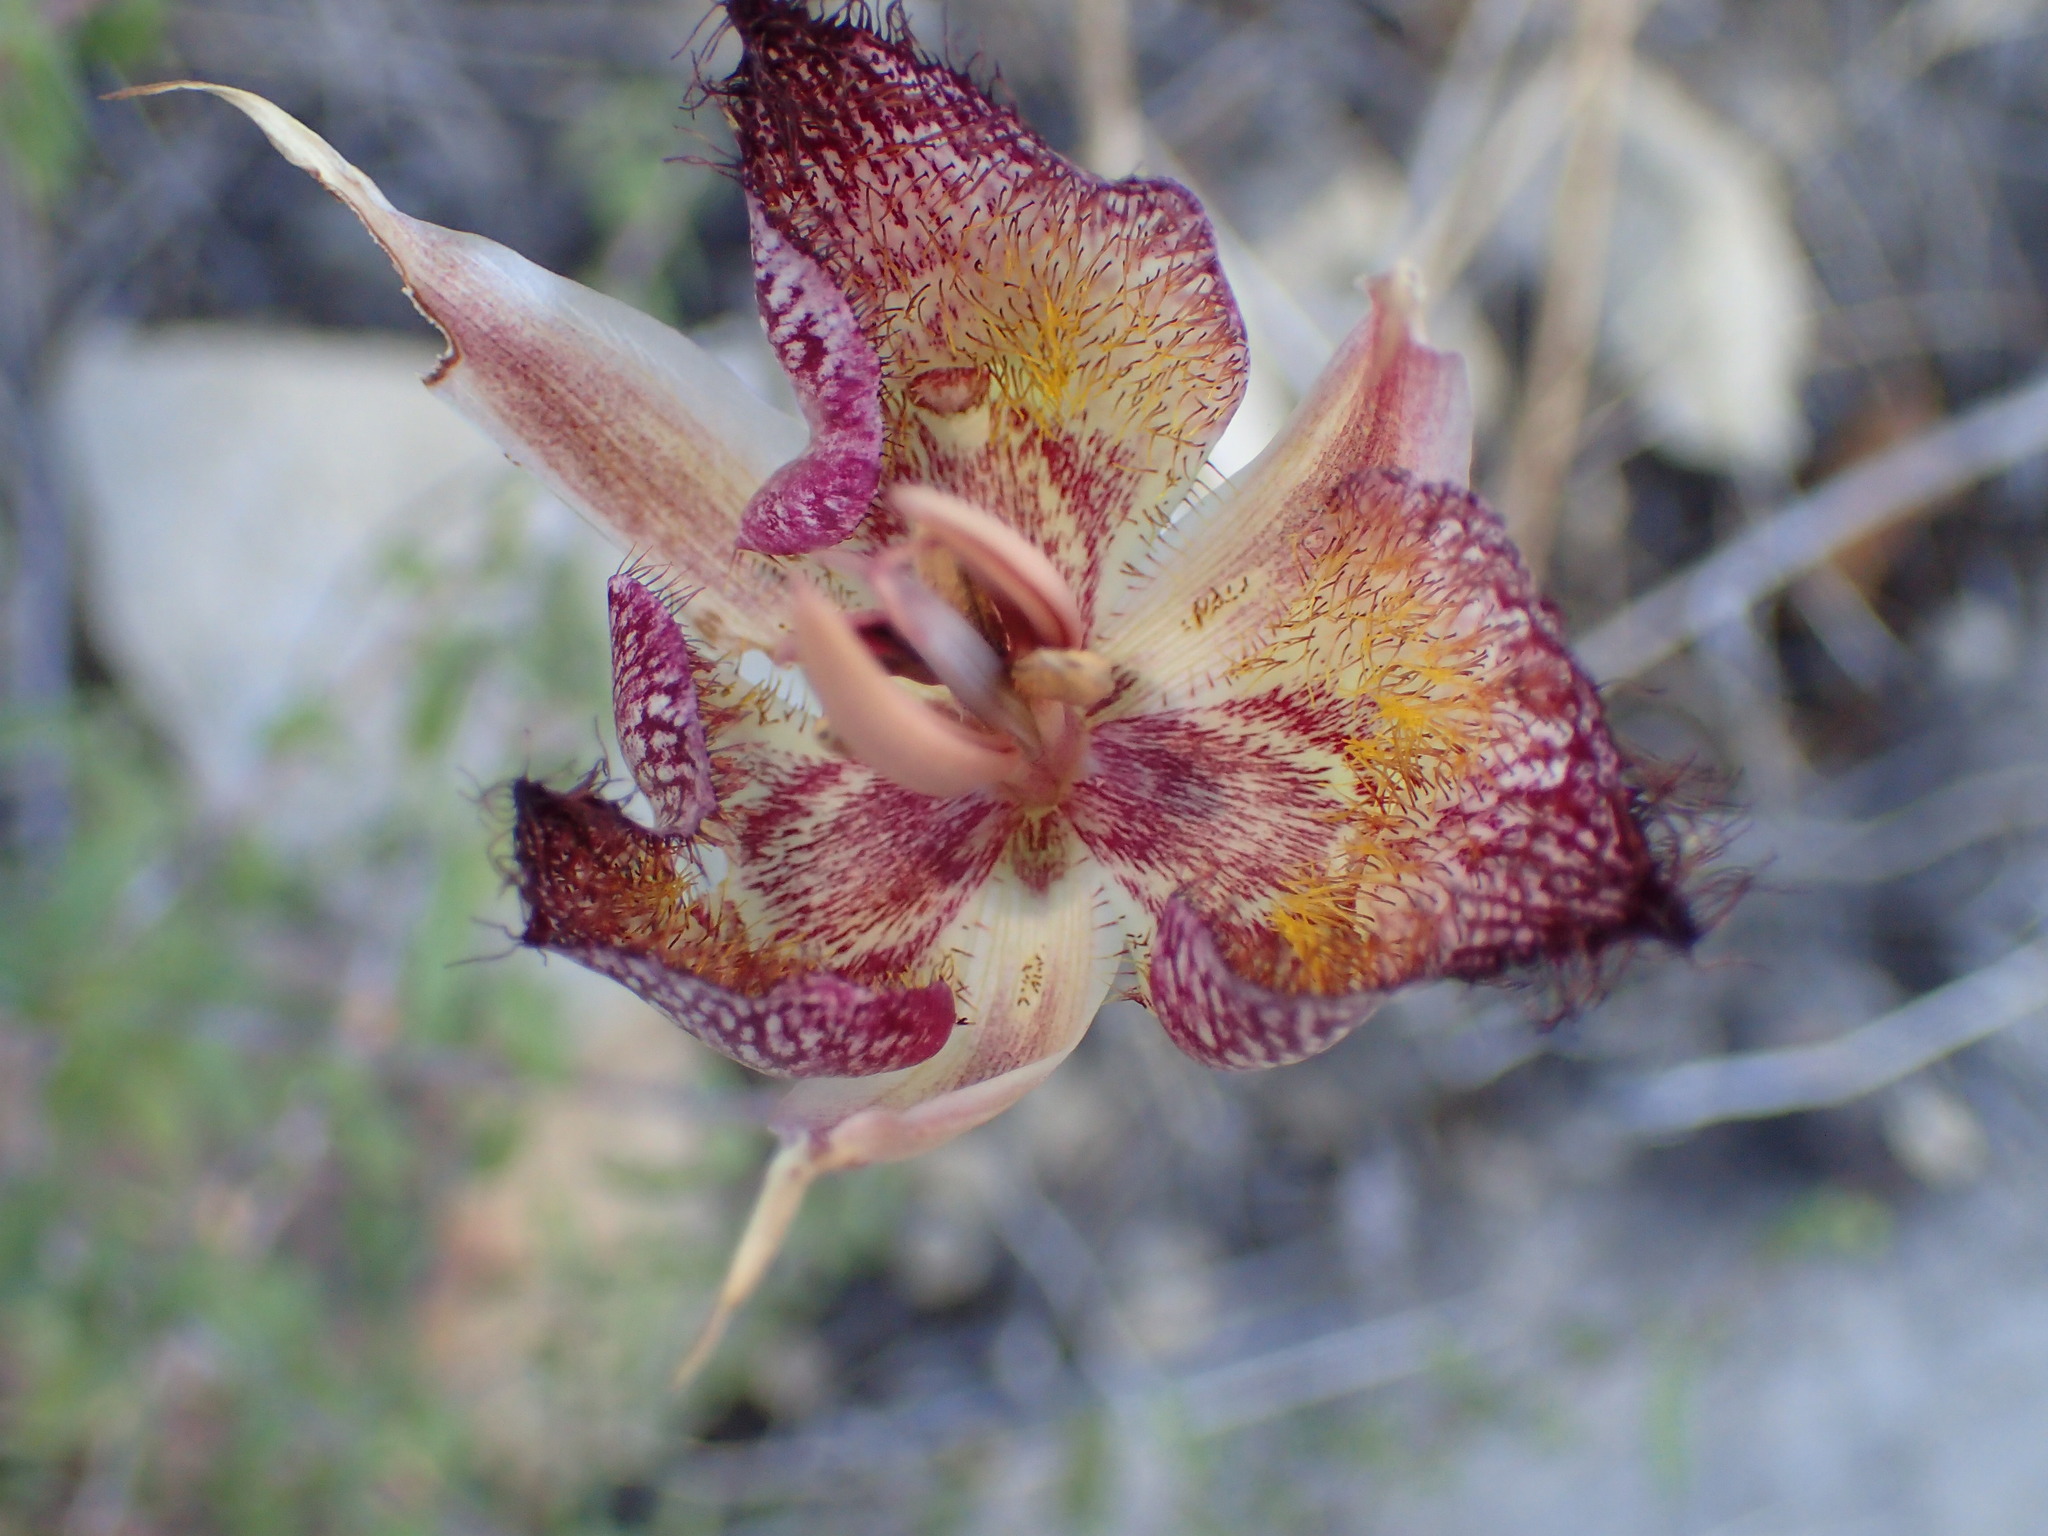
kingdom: Plantae
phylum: Tracheophyta
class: Liliopsida
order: Liliales
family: Liliaceae
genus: Calochortus
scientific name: Calochortus fimbriatus
